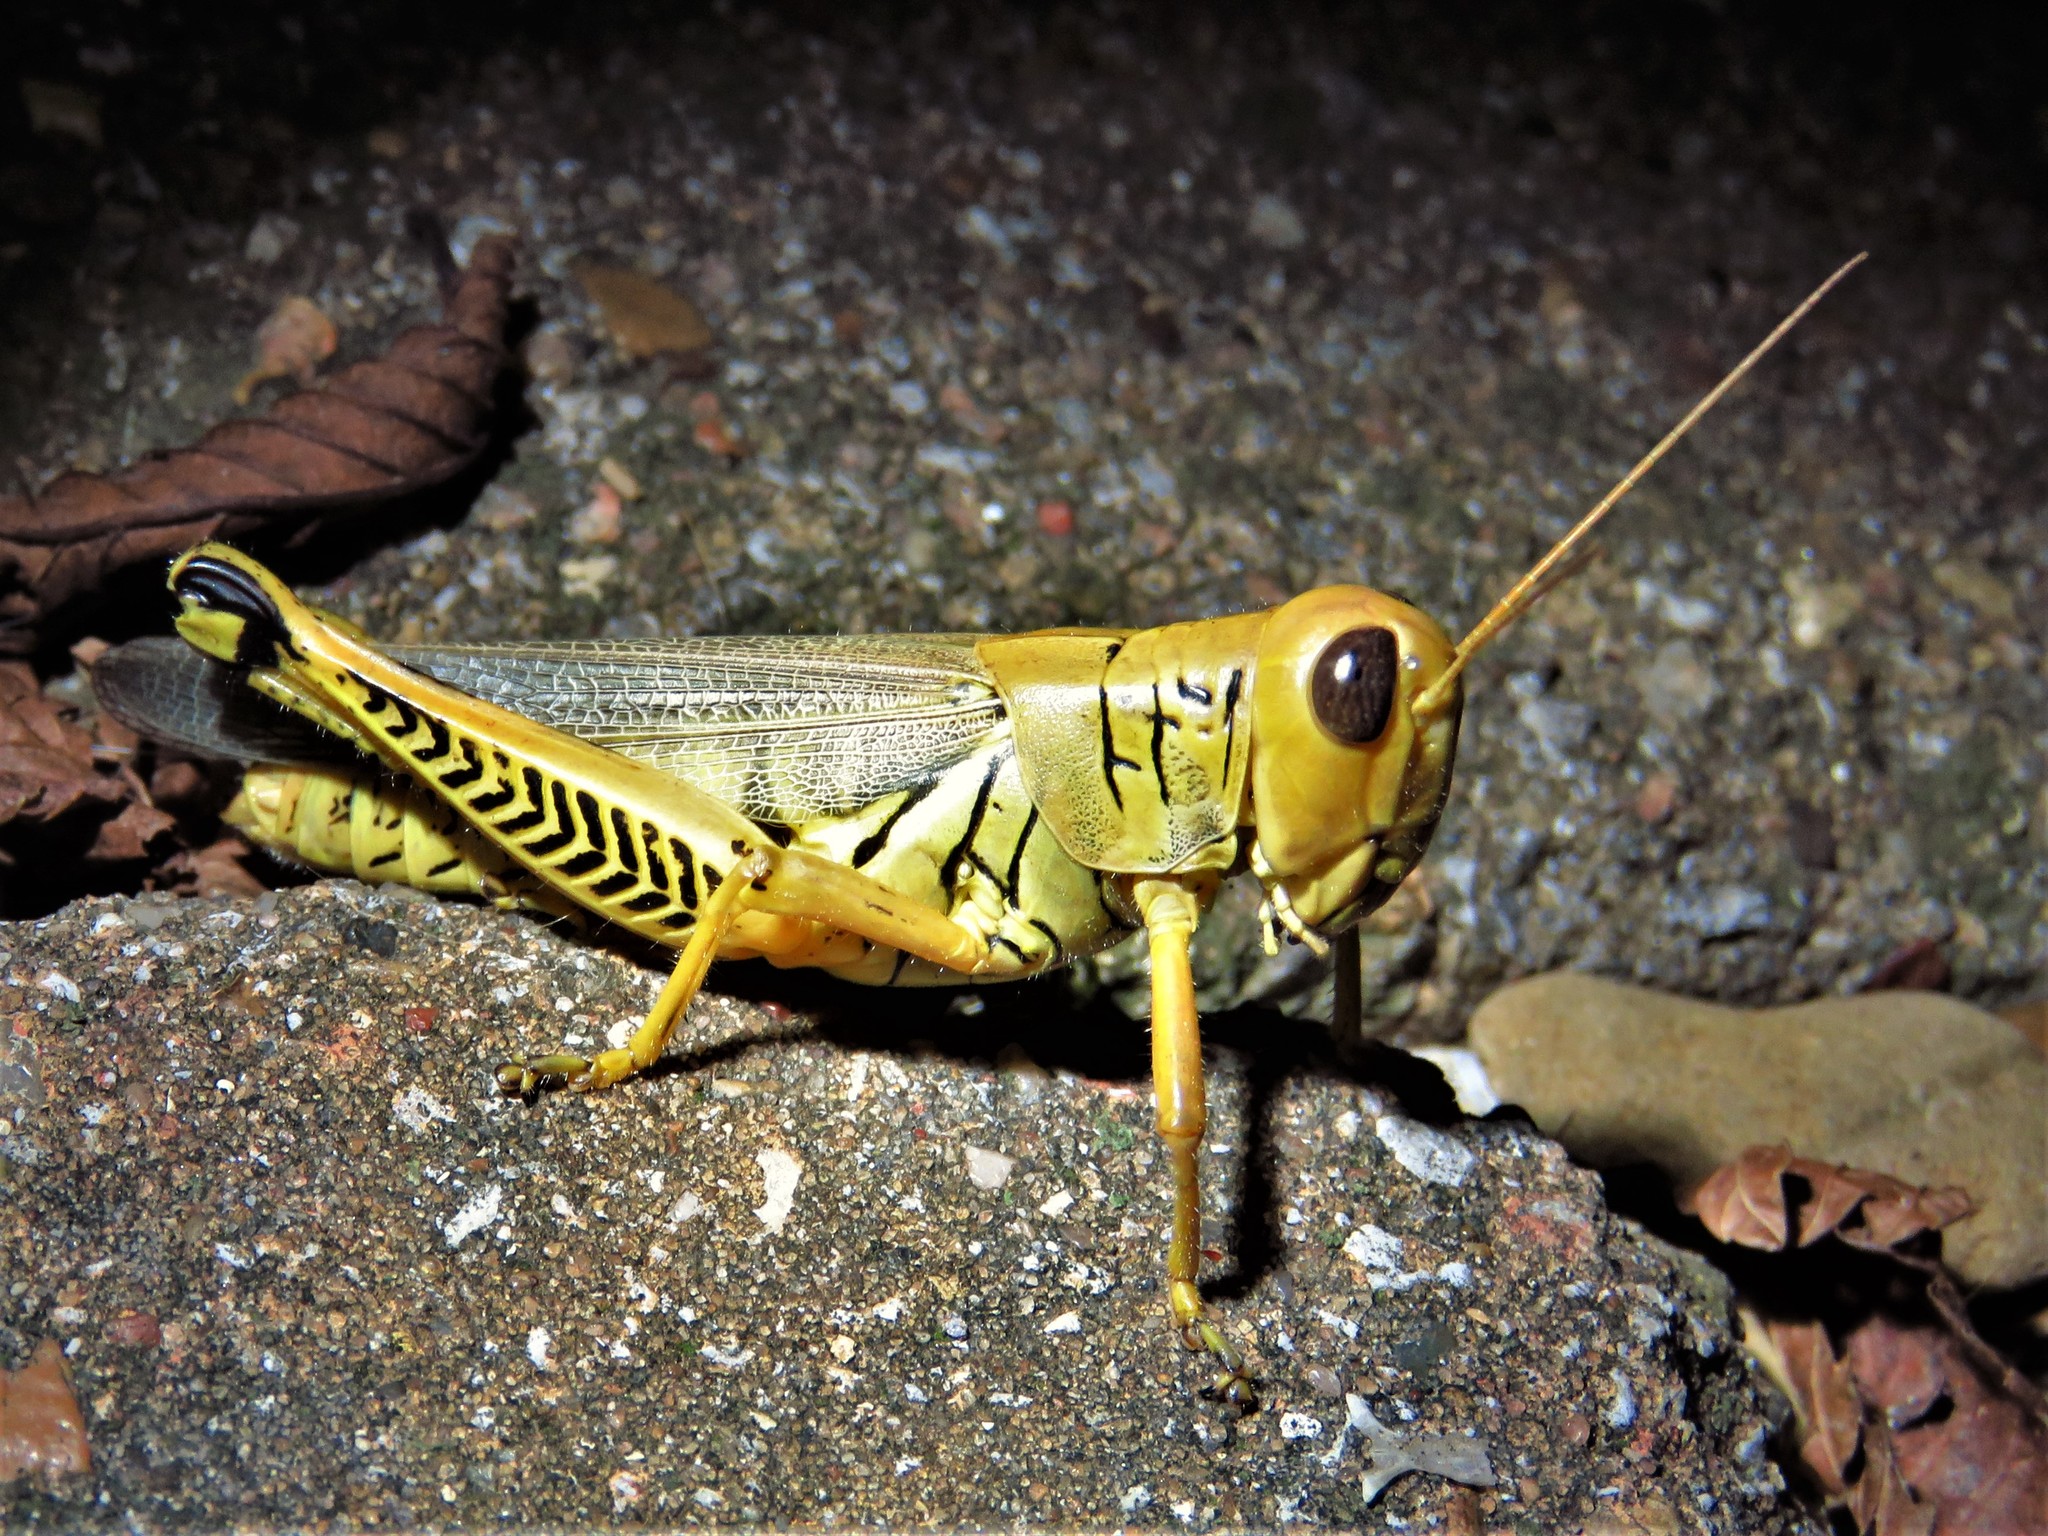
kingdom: Animalia
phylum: Arthropoda
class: Insecta
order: Orthoptera
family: Acrididae
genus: Melanoplus
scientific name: Melanoplus differentialis
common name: Differential grasshopper
